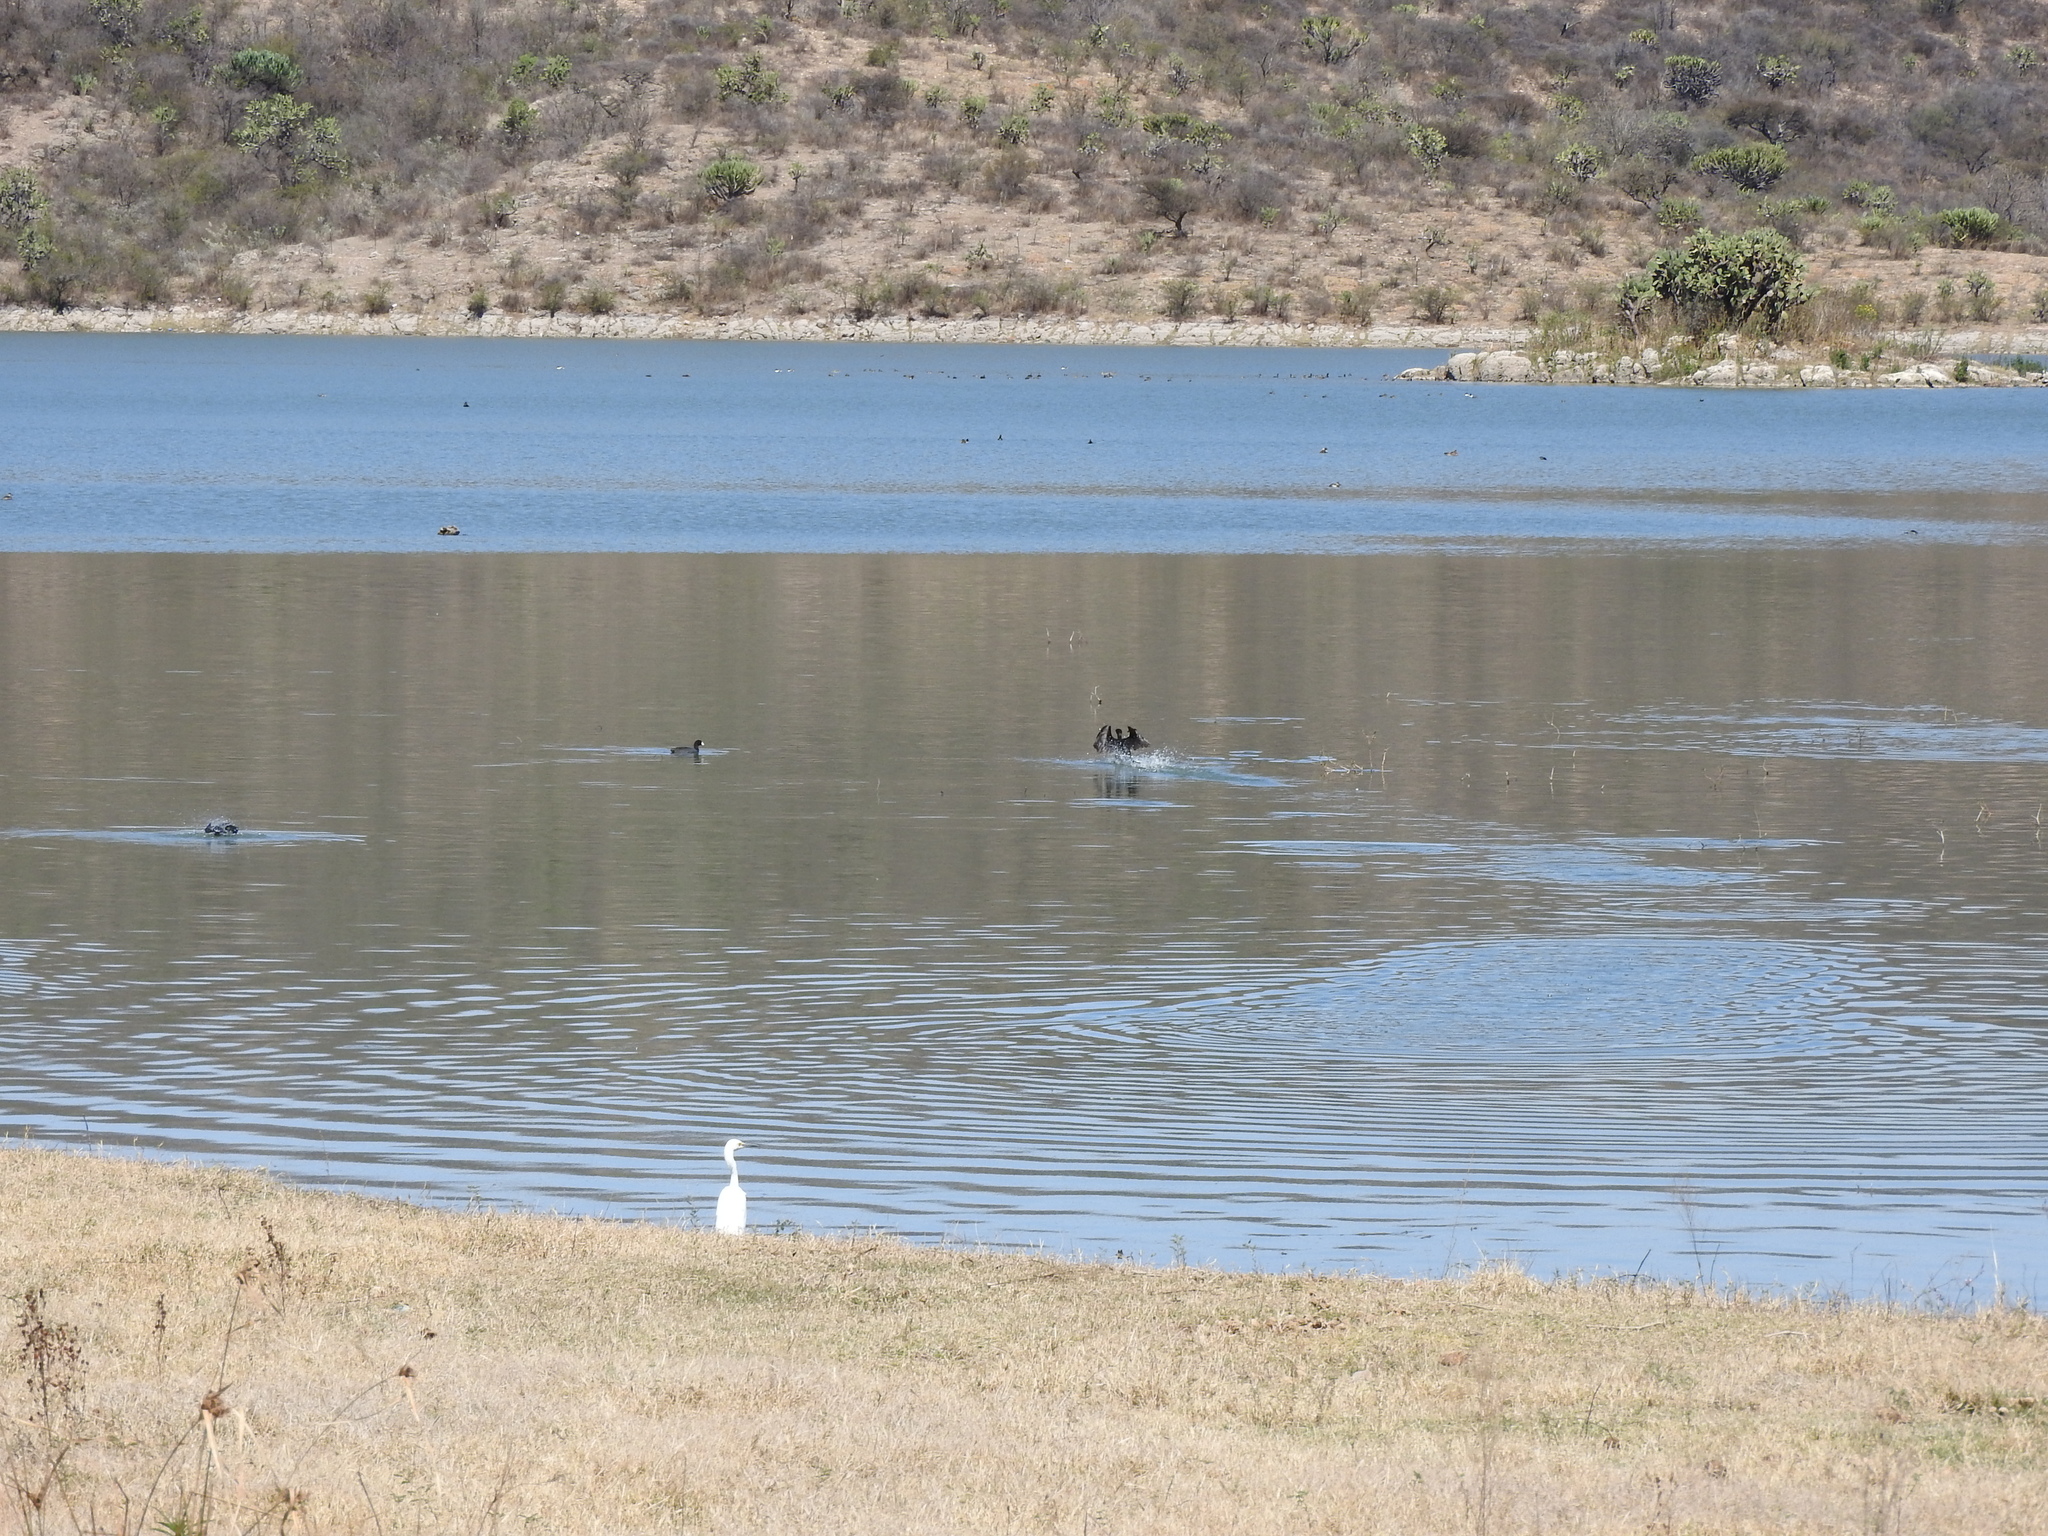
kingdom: Animalia
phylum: Chordata
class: Aves
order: Pelecaniformes
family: Ardeidae
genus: Egretta
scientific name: Egretta thula
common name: Snowy egret
